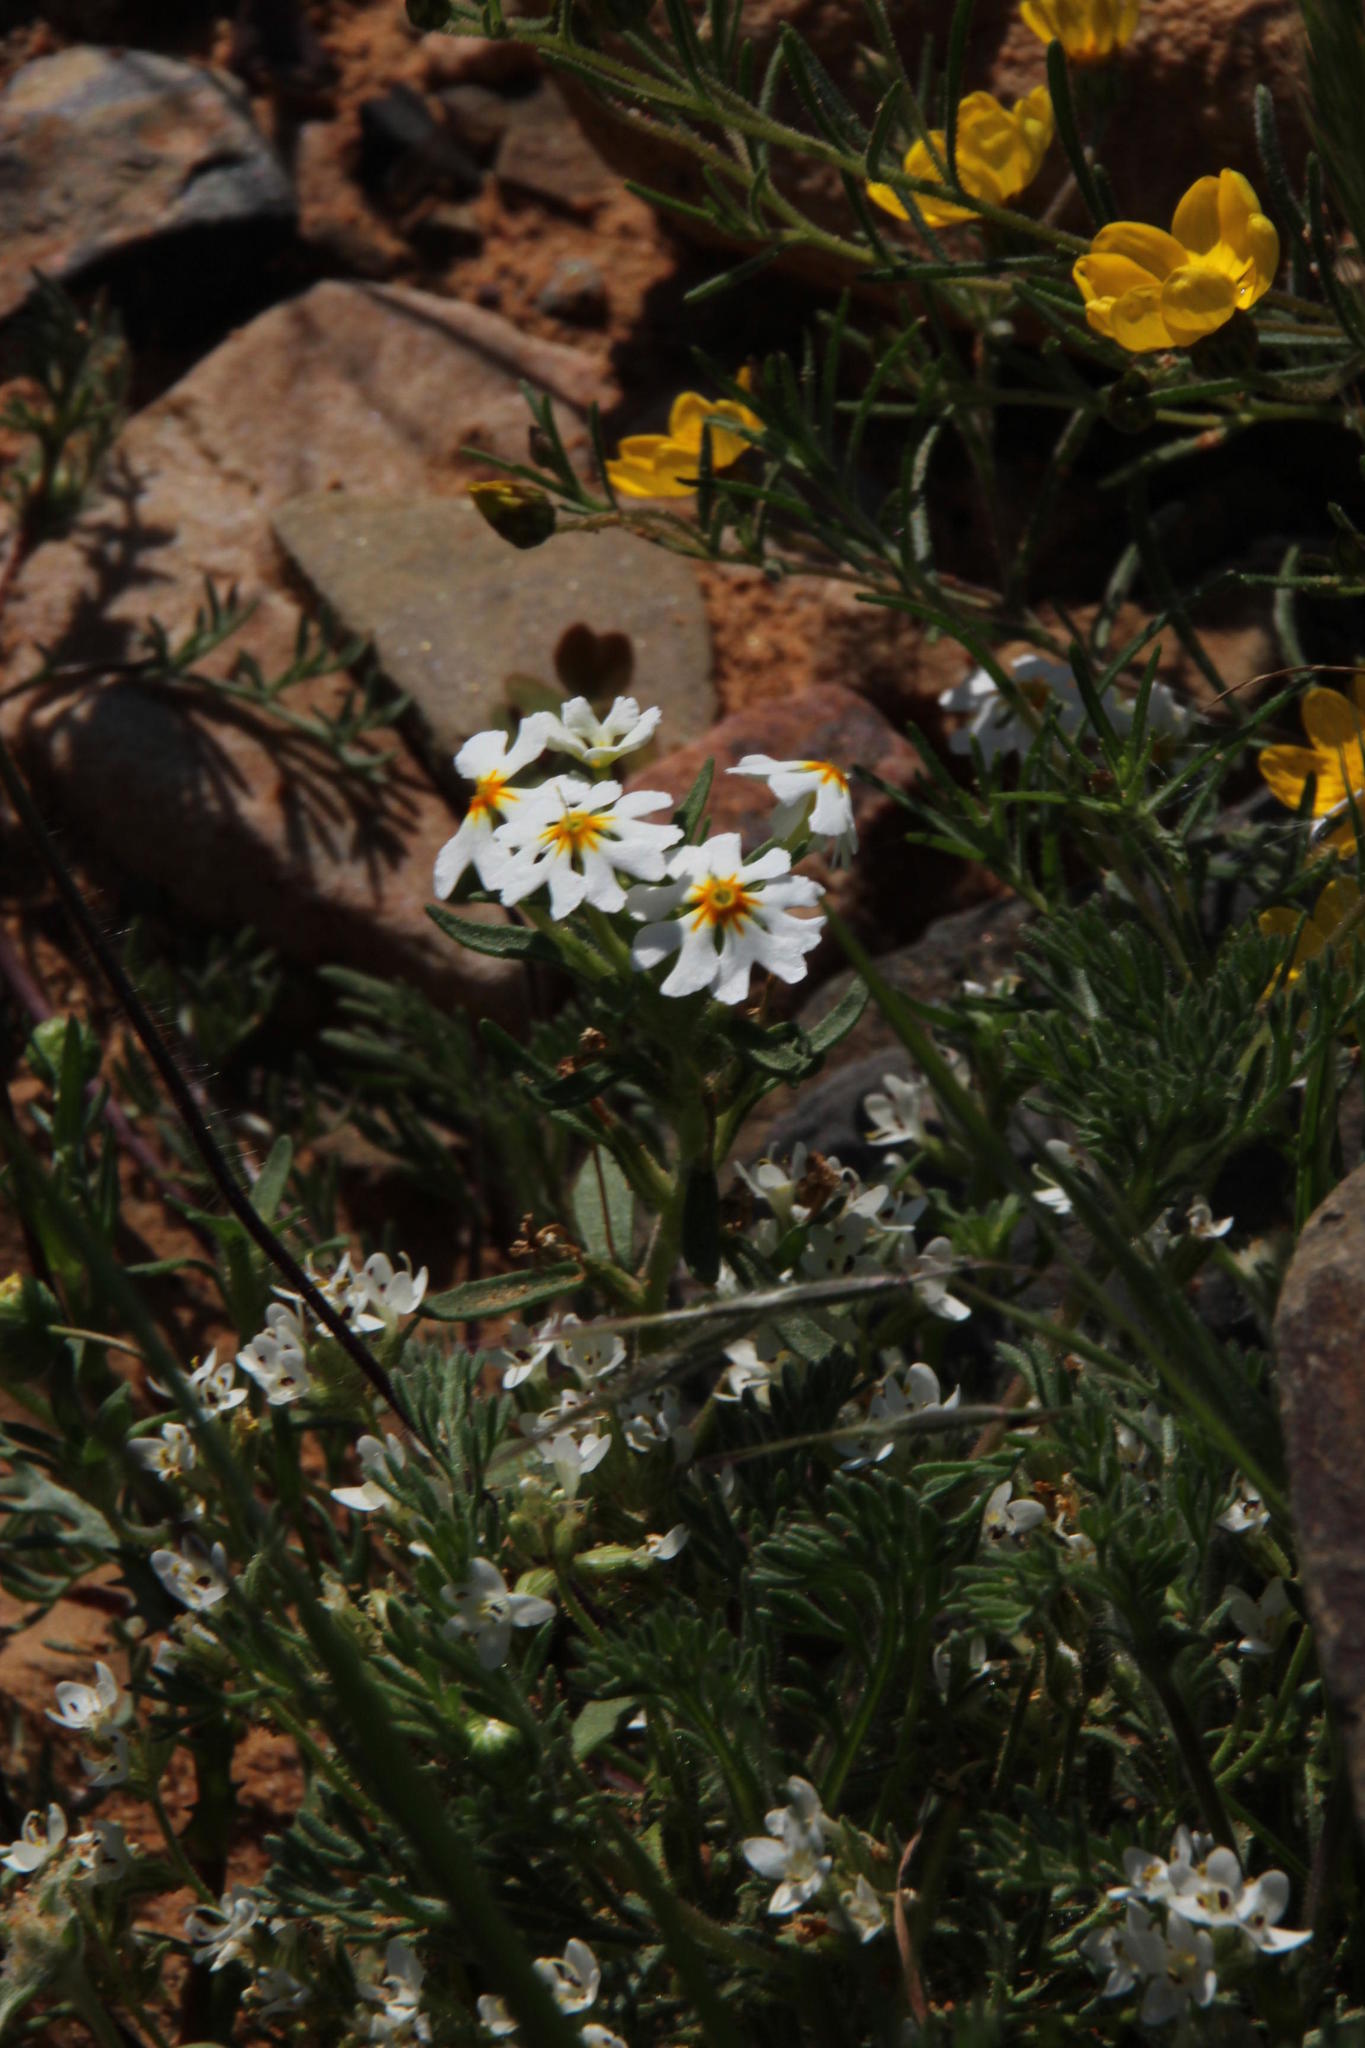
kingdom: Plantae
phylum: Tracheophyta
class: Magnoliopsida
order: Lamiales
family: Scrophulariaceae
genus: Zaluzianskya
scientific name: Zaluzianskya affinis
